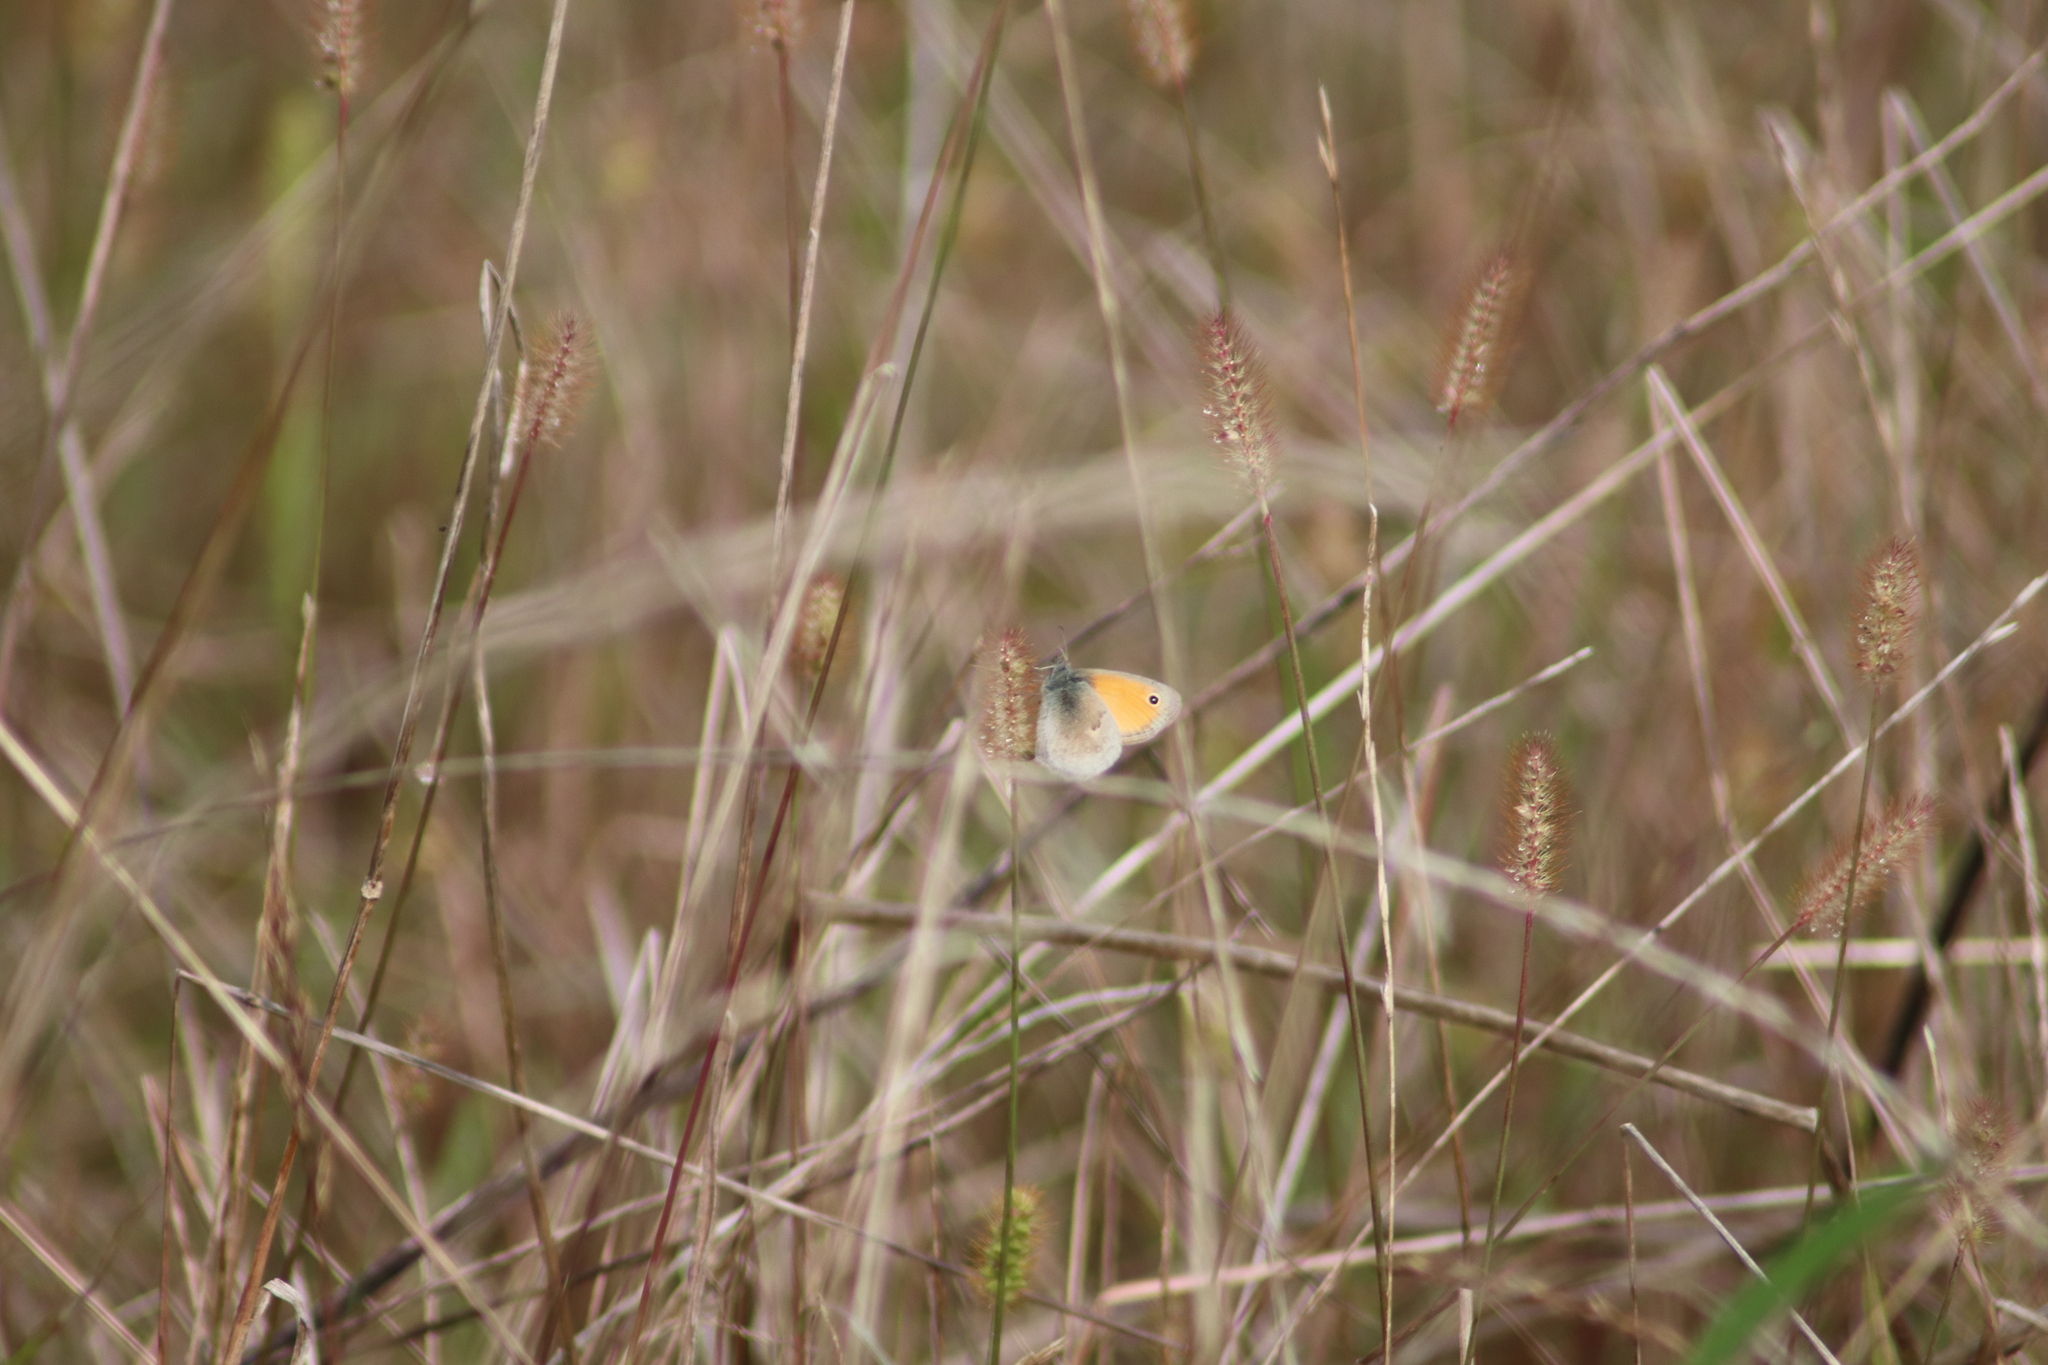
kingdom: Animalia
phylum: Arthropoda
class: Insecta
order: Lepidoptera
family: Nymphalidae
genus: Coenonympha
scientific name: Coenonympha pamphilus
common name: Small heath
